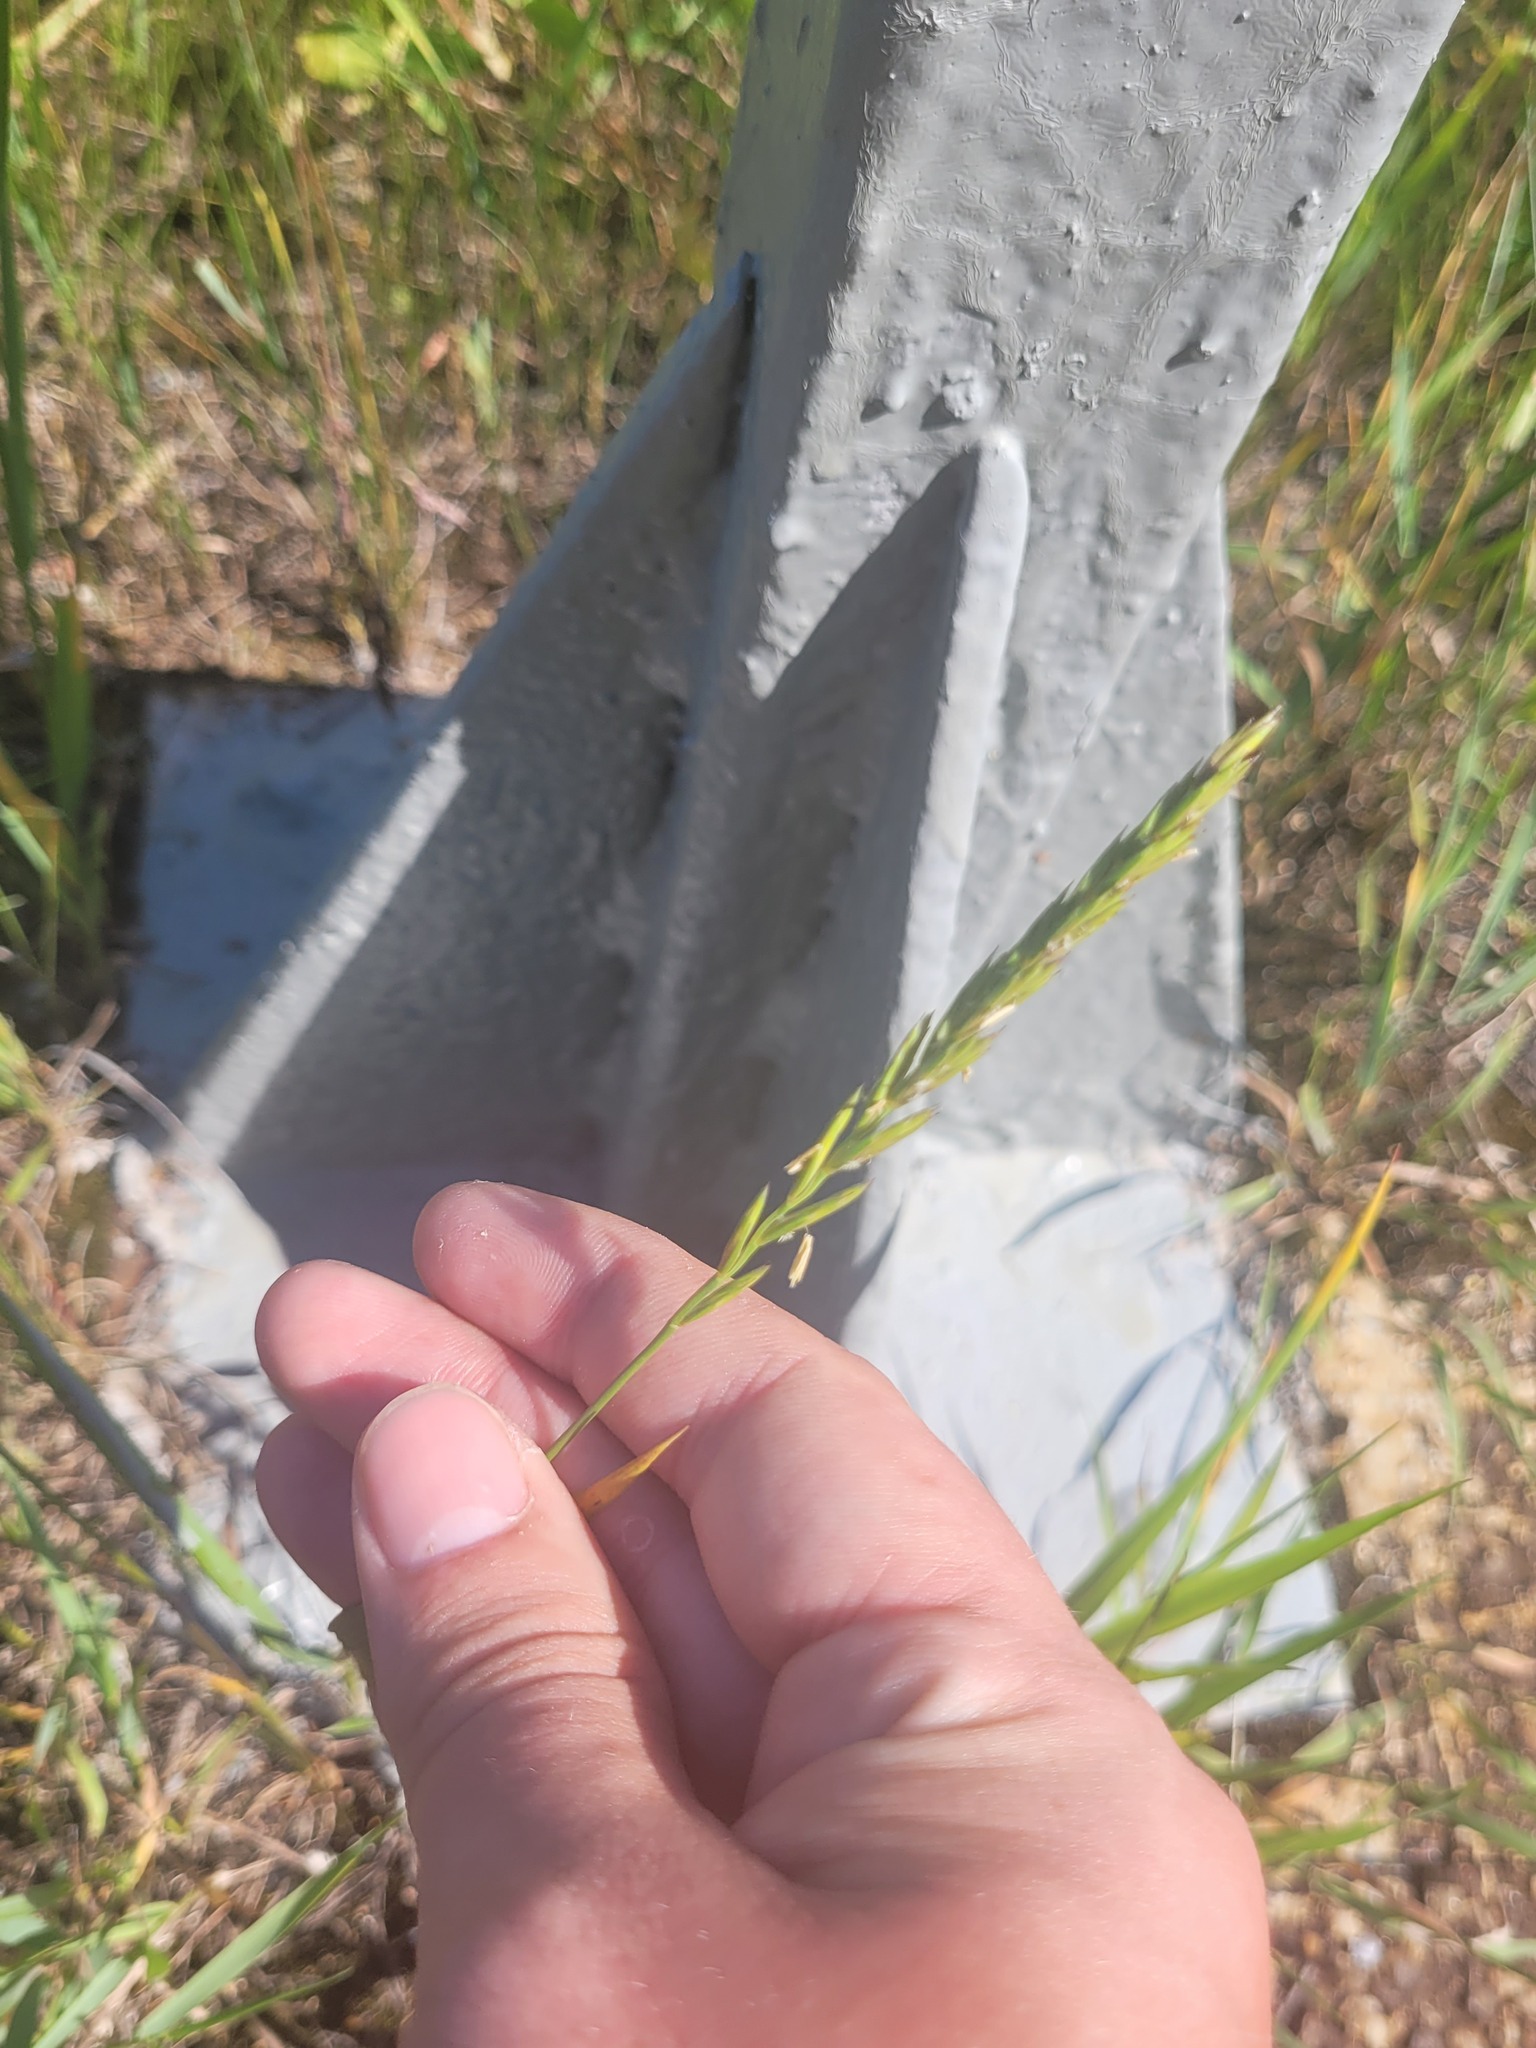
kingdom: Plantae
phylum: Tracheophyta
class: Liliopsida
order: Poales
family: Poaceae
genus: Elymus
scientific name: Elymus repens
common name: Quackgrass
